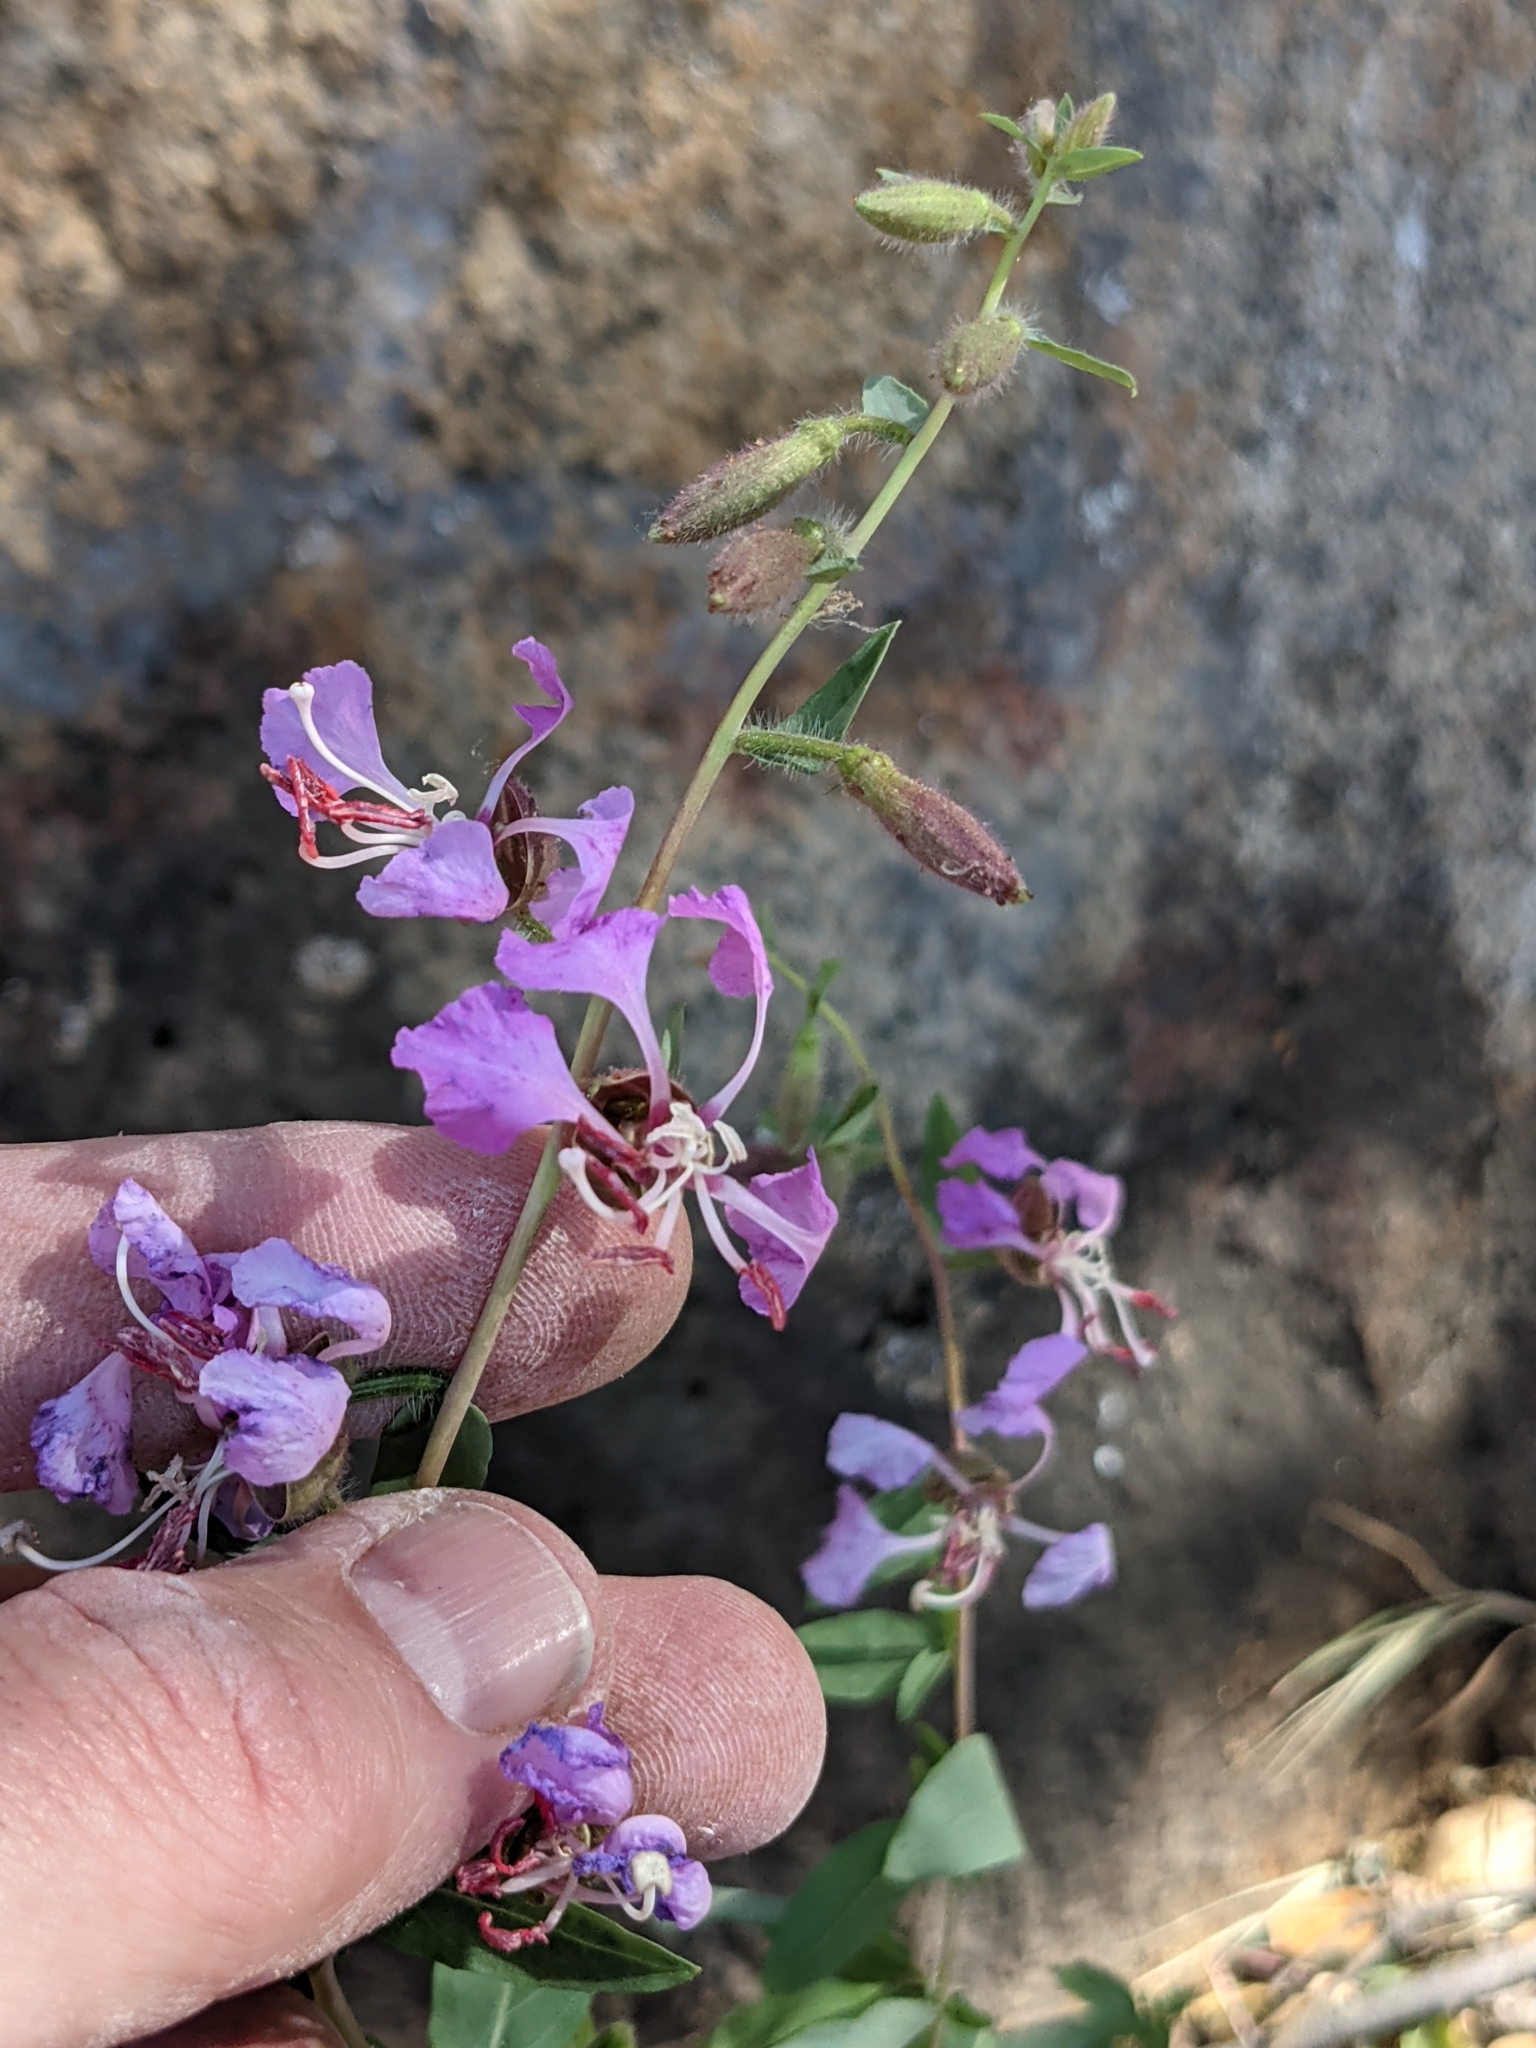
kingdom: Plantae
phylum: Tracheophyta
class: Magnoliopsida
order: Myrtales
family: Onagraceae
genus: Clarkia
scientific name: Clarkia unguiculata
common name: Clarkia
